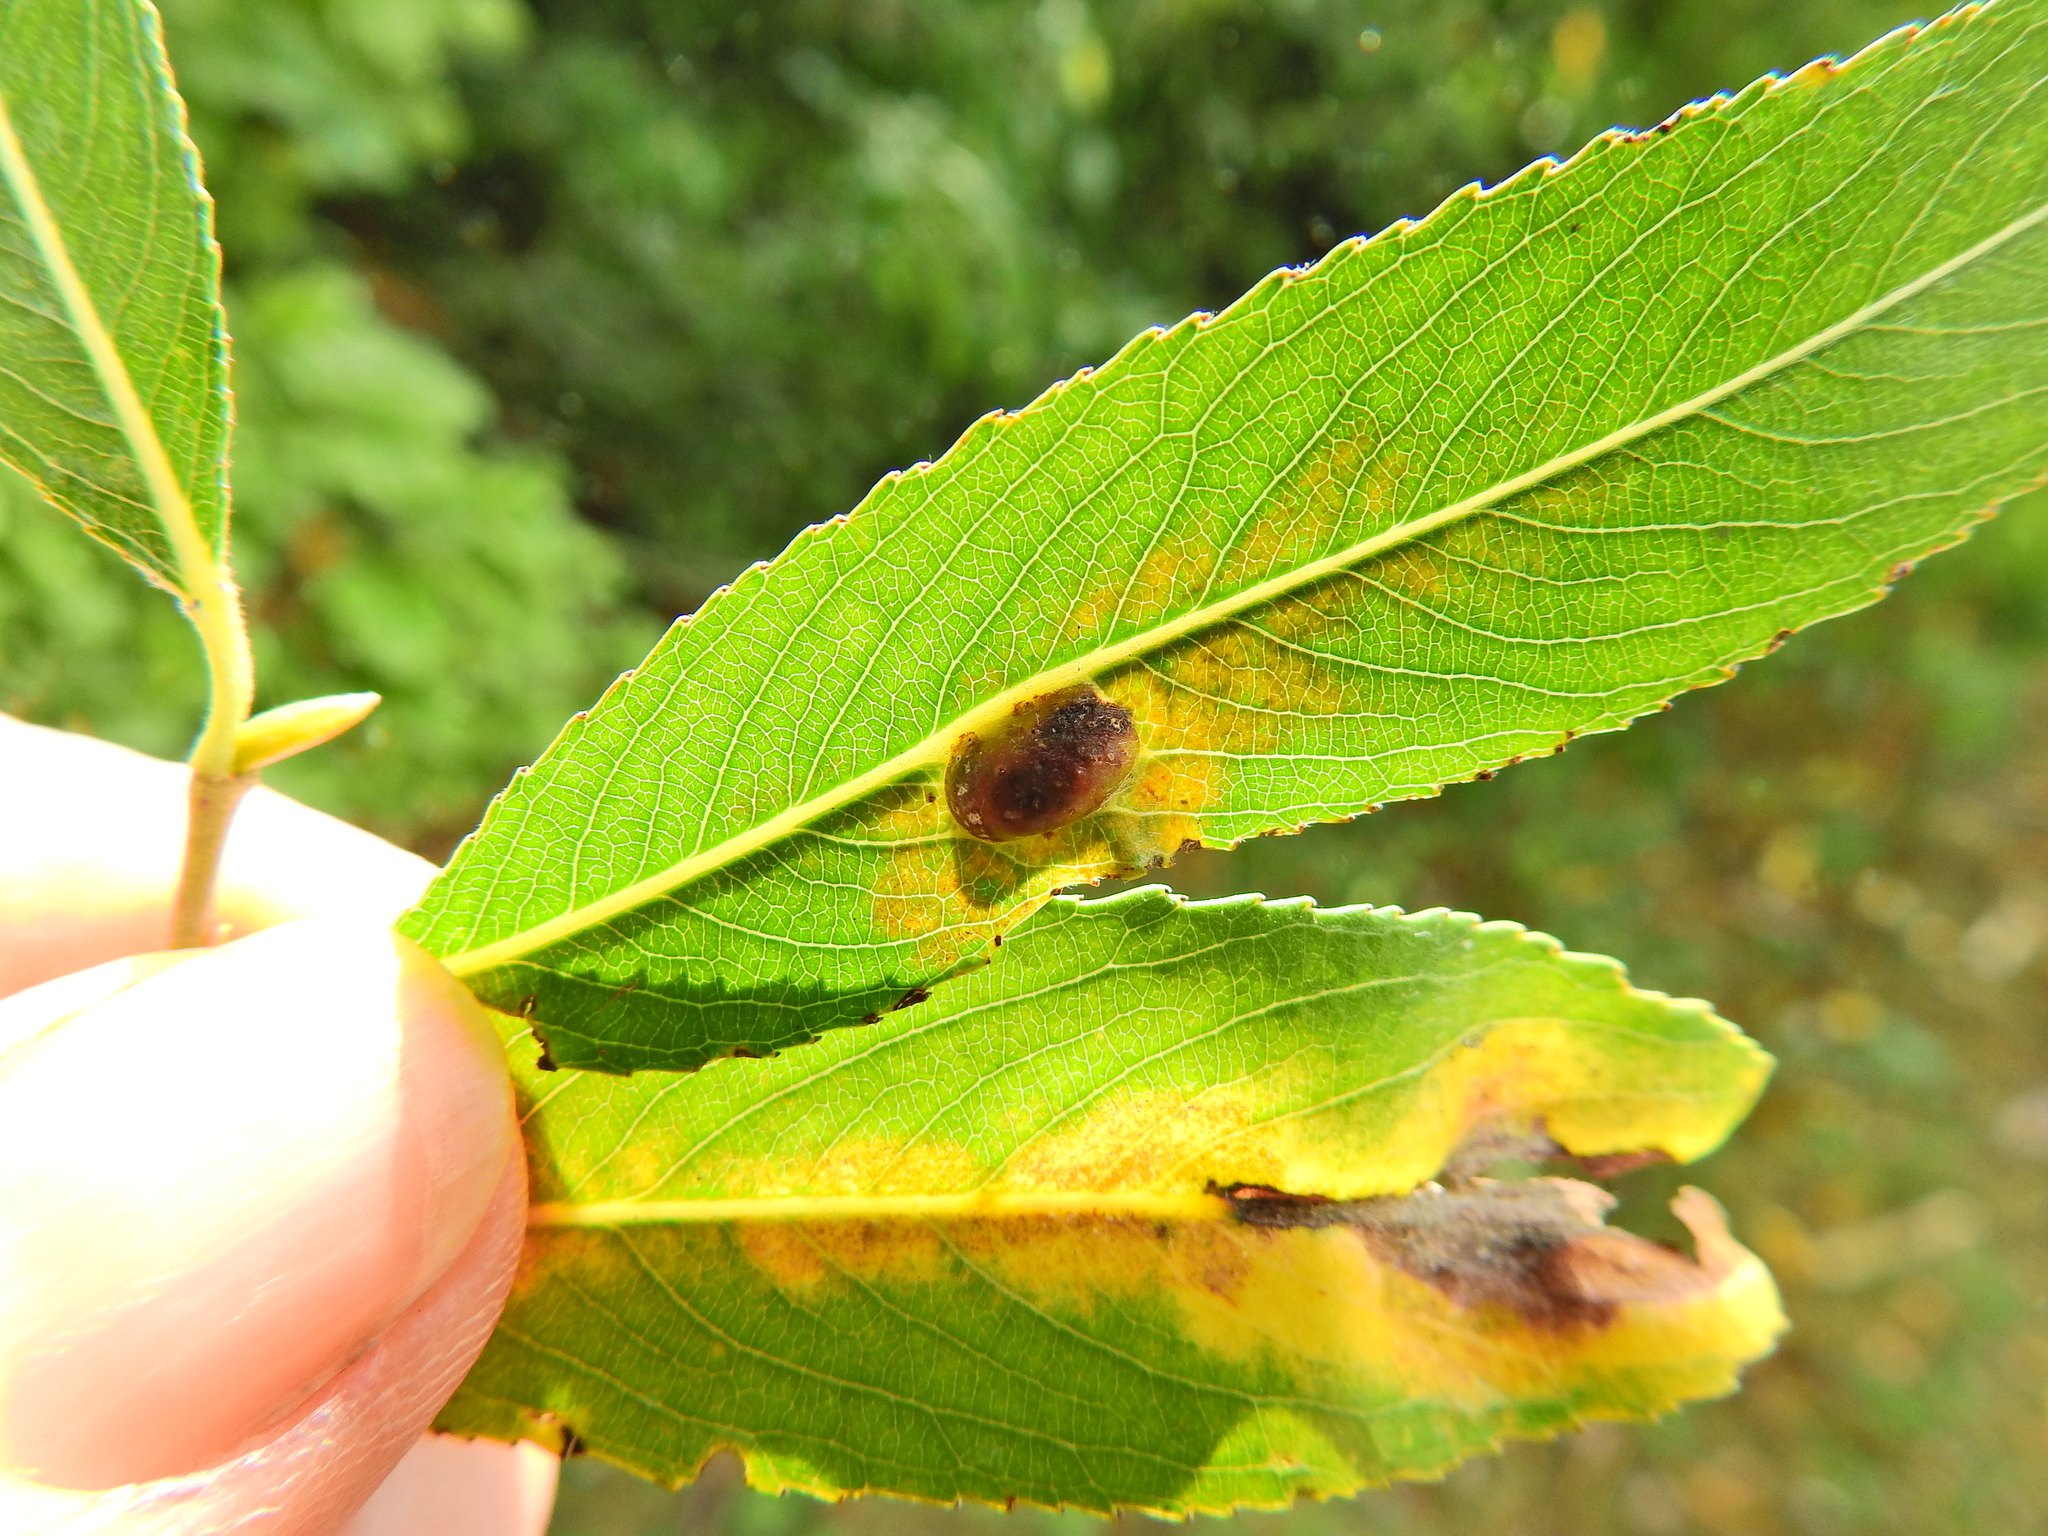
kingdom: Animalia
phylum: Arthropoda
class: Insecta
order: Hymenoptera
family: Tenthredinidae
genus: Pontania
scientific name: Pontania proxima
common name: Common sawfly
